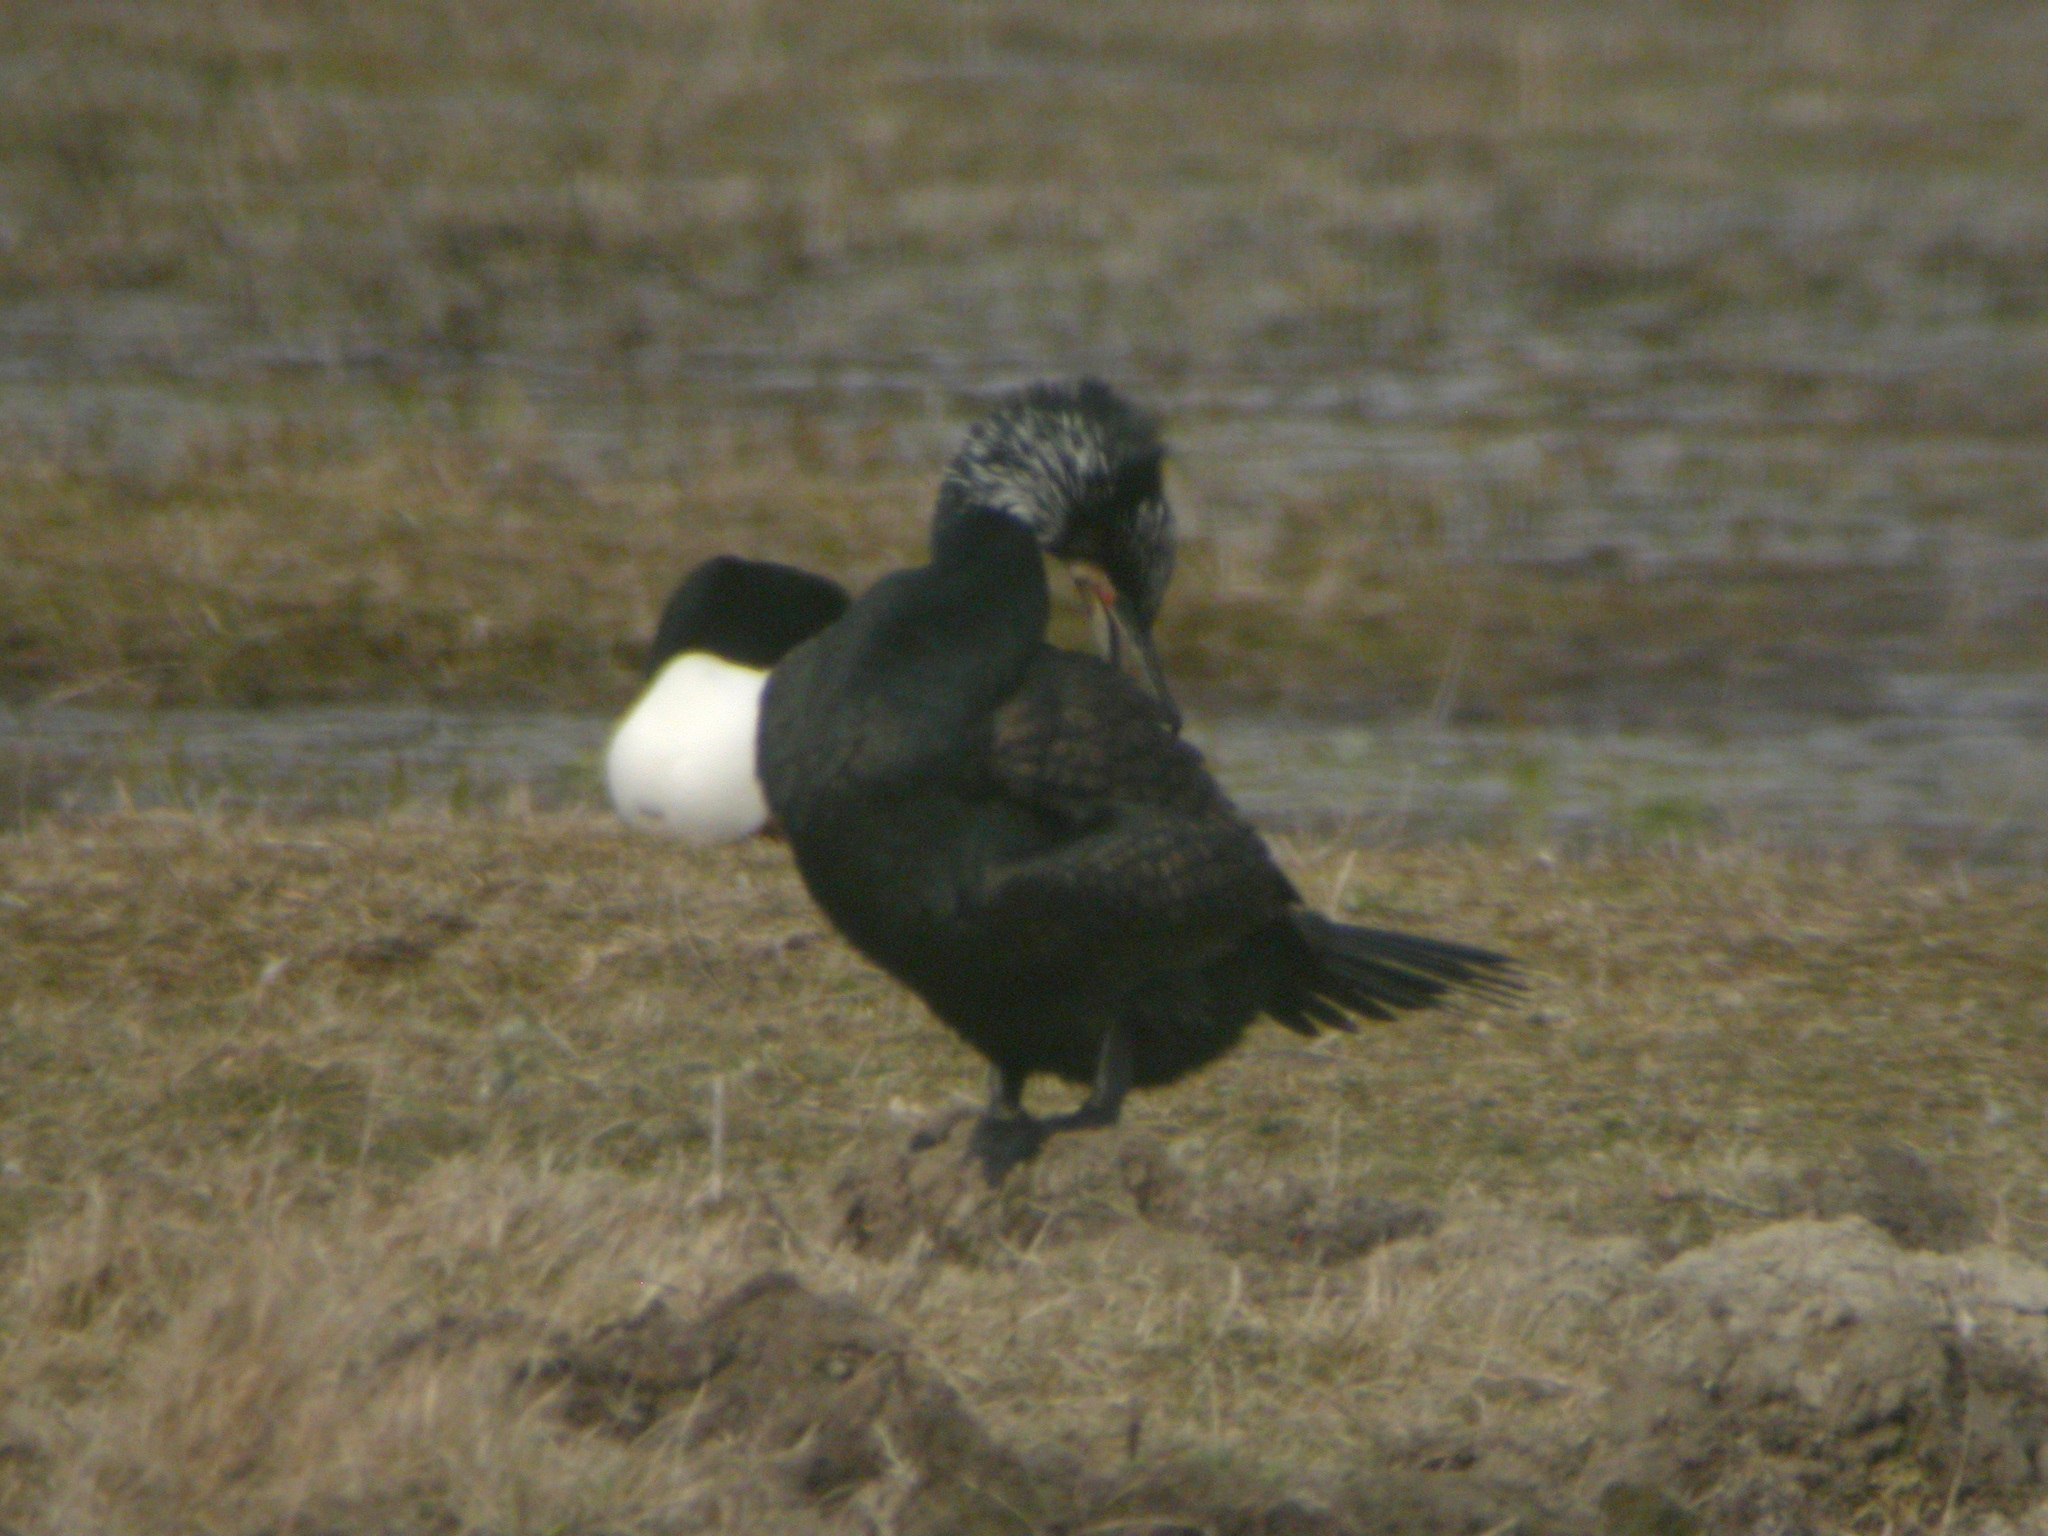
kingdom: Animalia
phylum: Chordata
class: Aves
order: Suliformes
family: Phalacrocoracidae
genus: Phalacrocorax
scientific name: Phalacrocorax carbo
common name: Great cormorant
